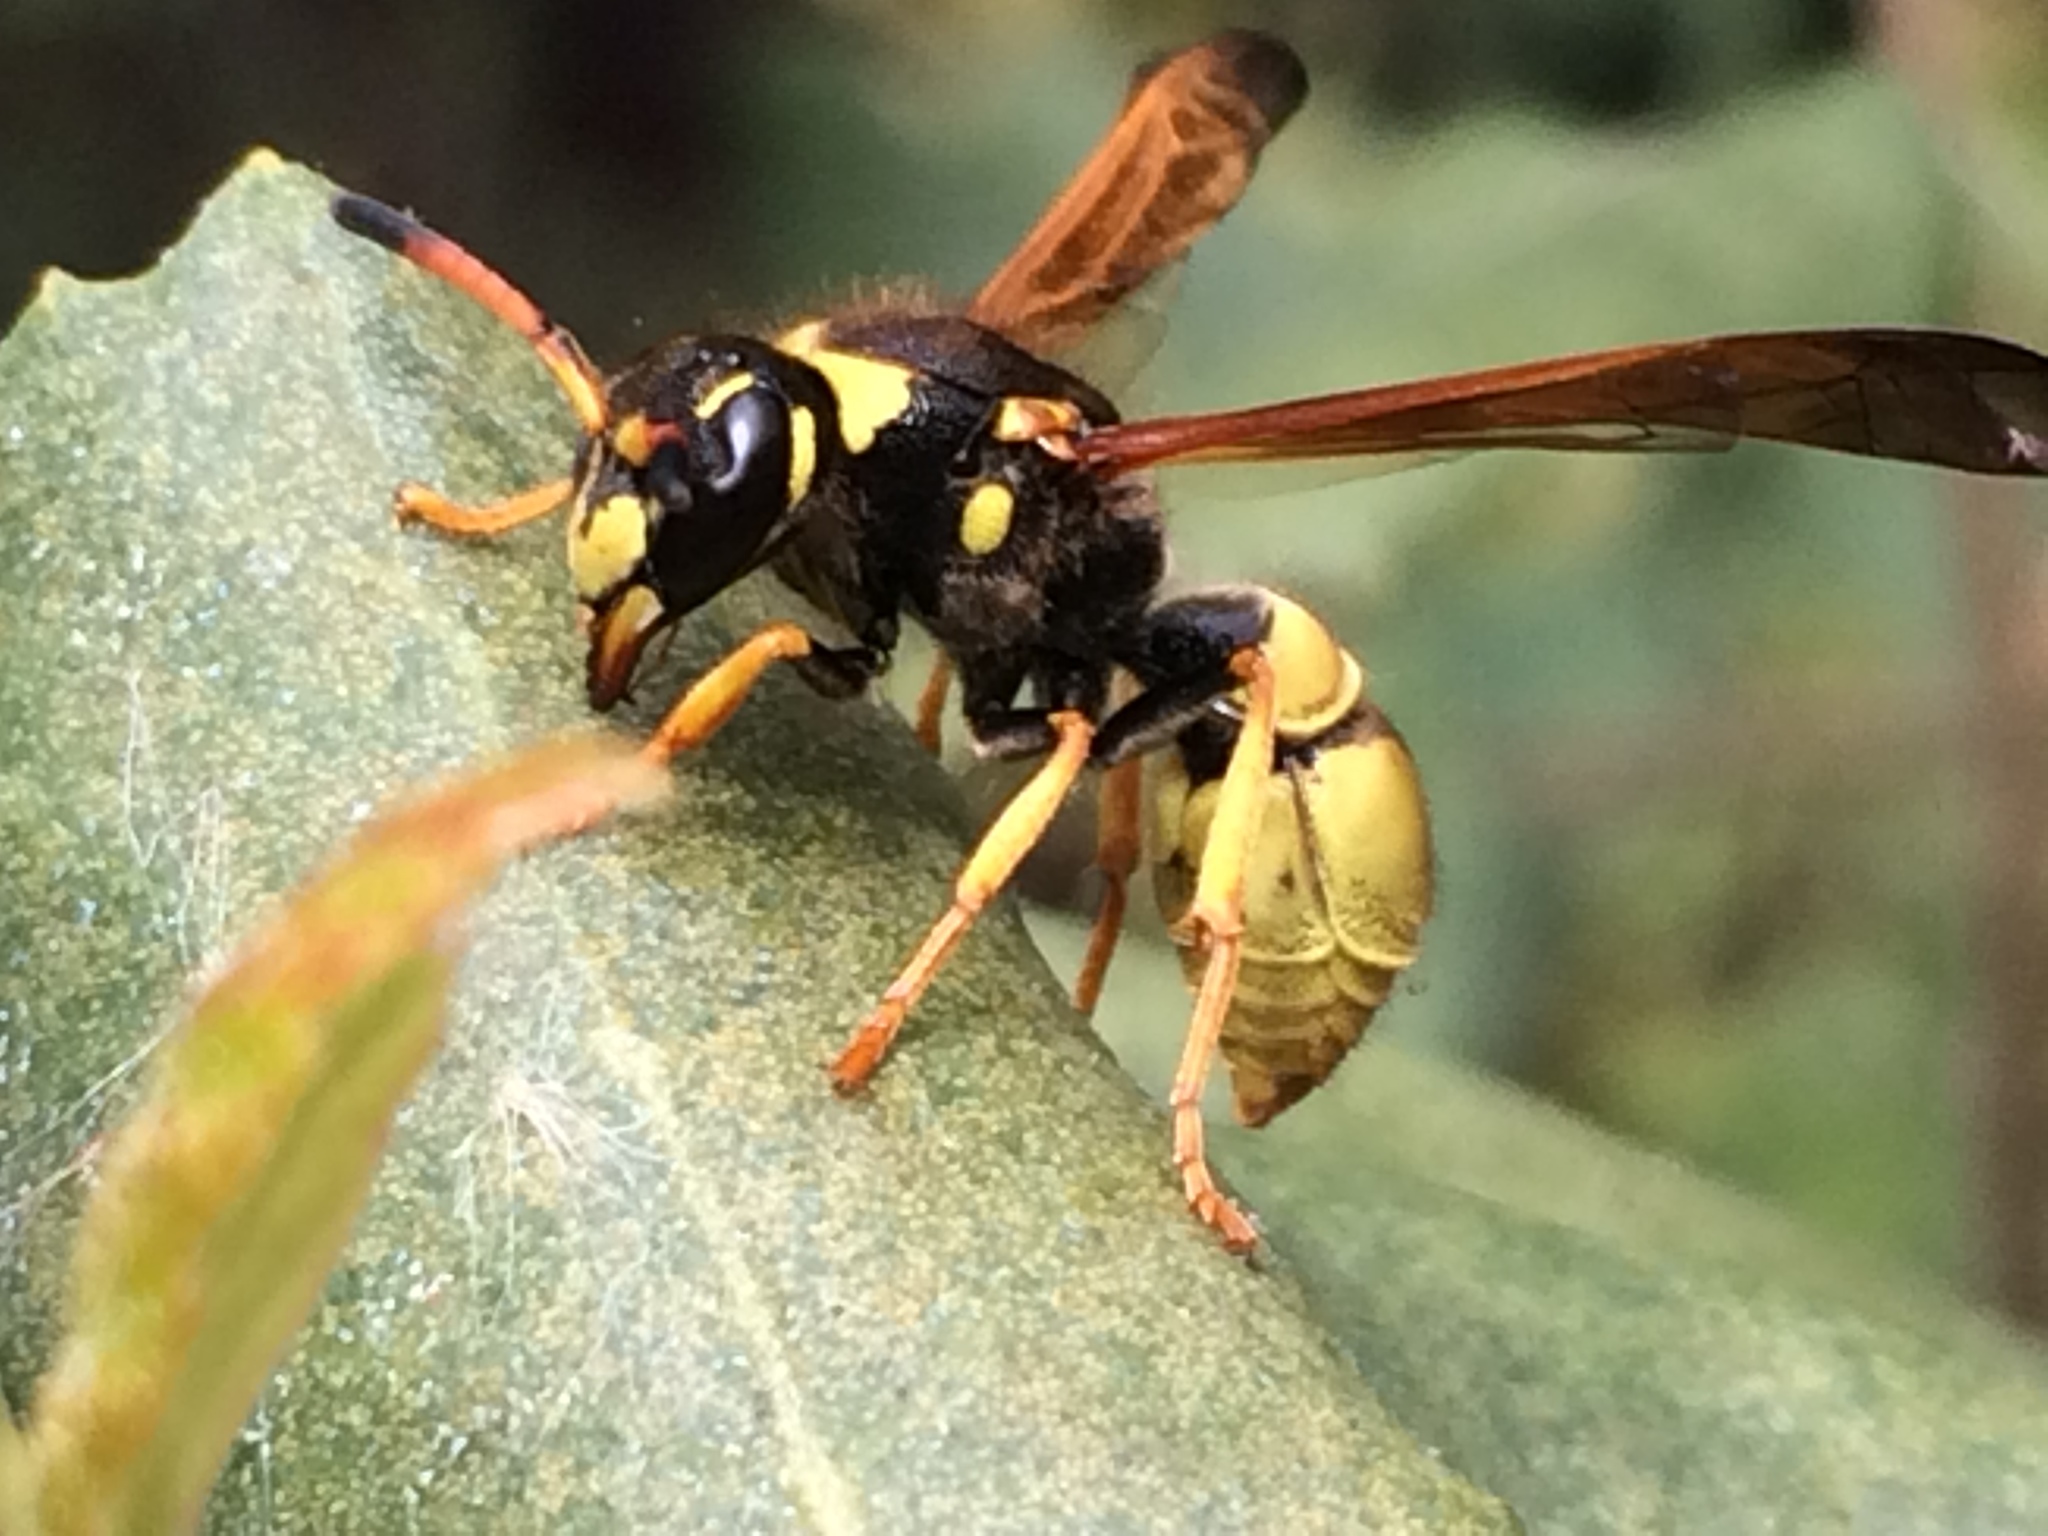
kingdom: Animalia
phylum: Arthropoda
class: Insecta
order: Hymenoptera
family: Vespidae
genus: Ancistrocerus
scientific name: Ancistrocerus lineativentris
